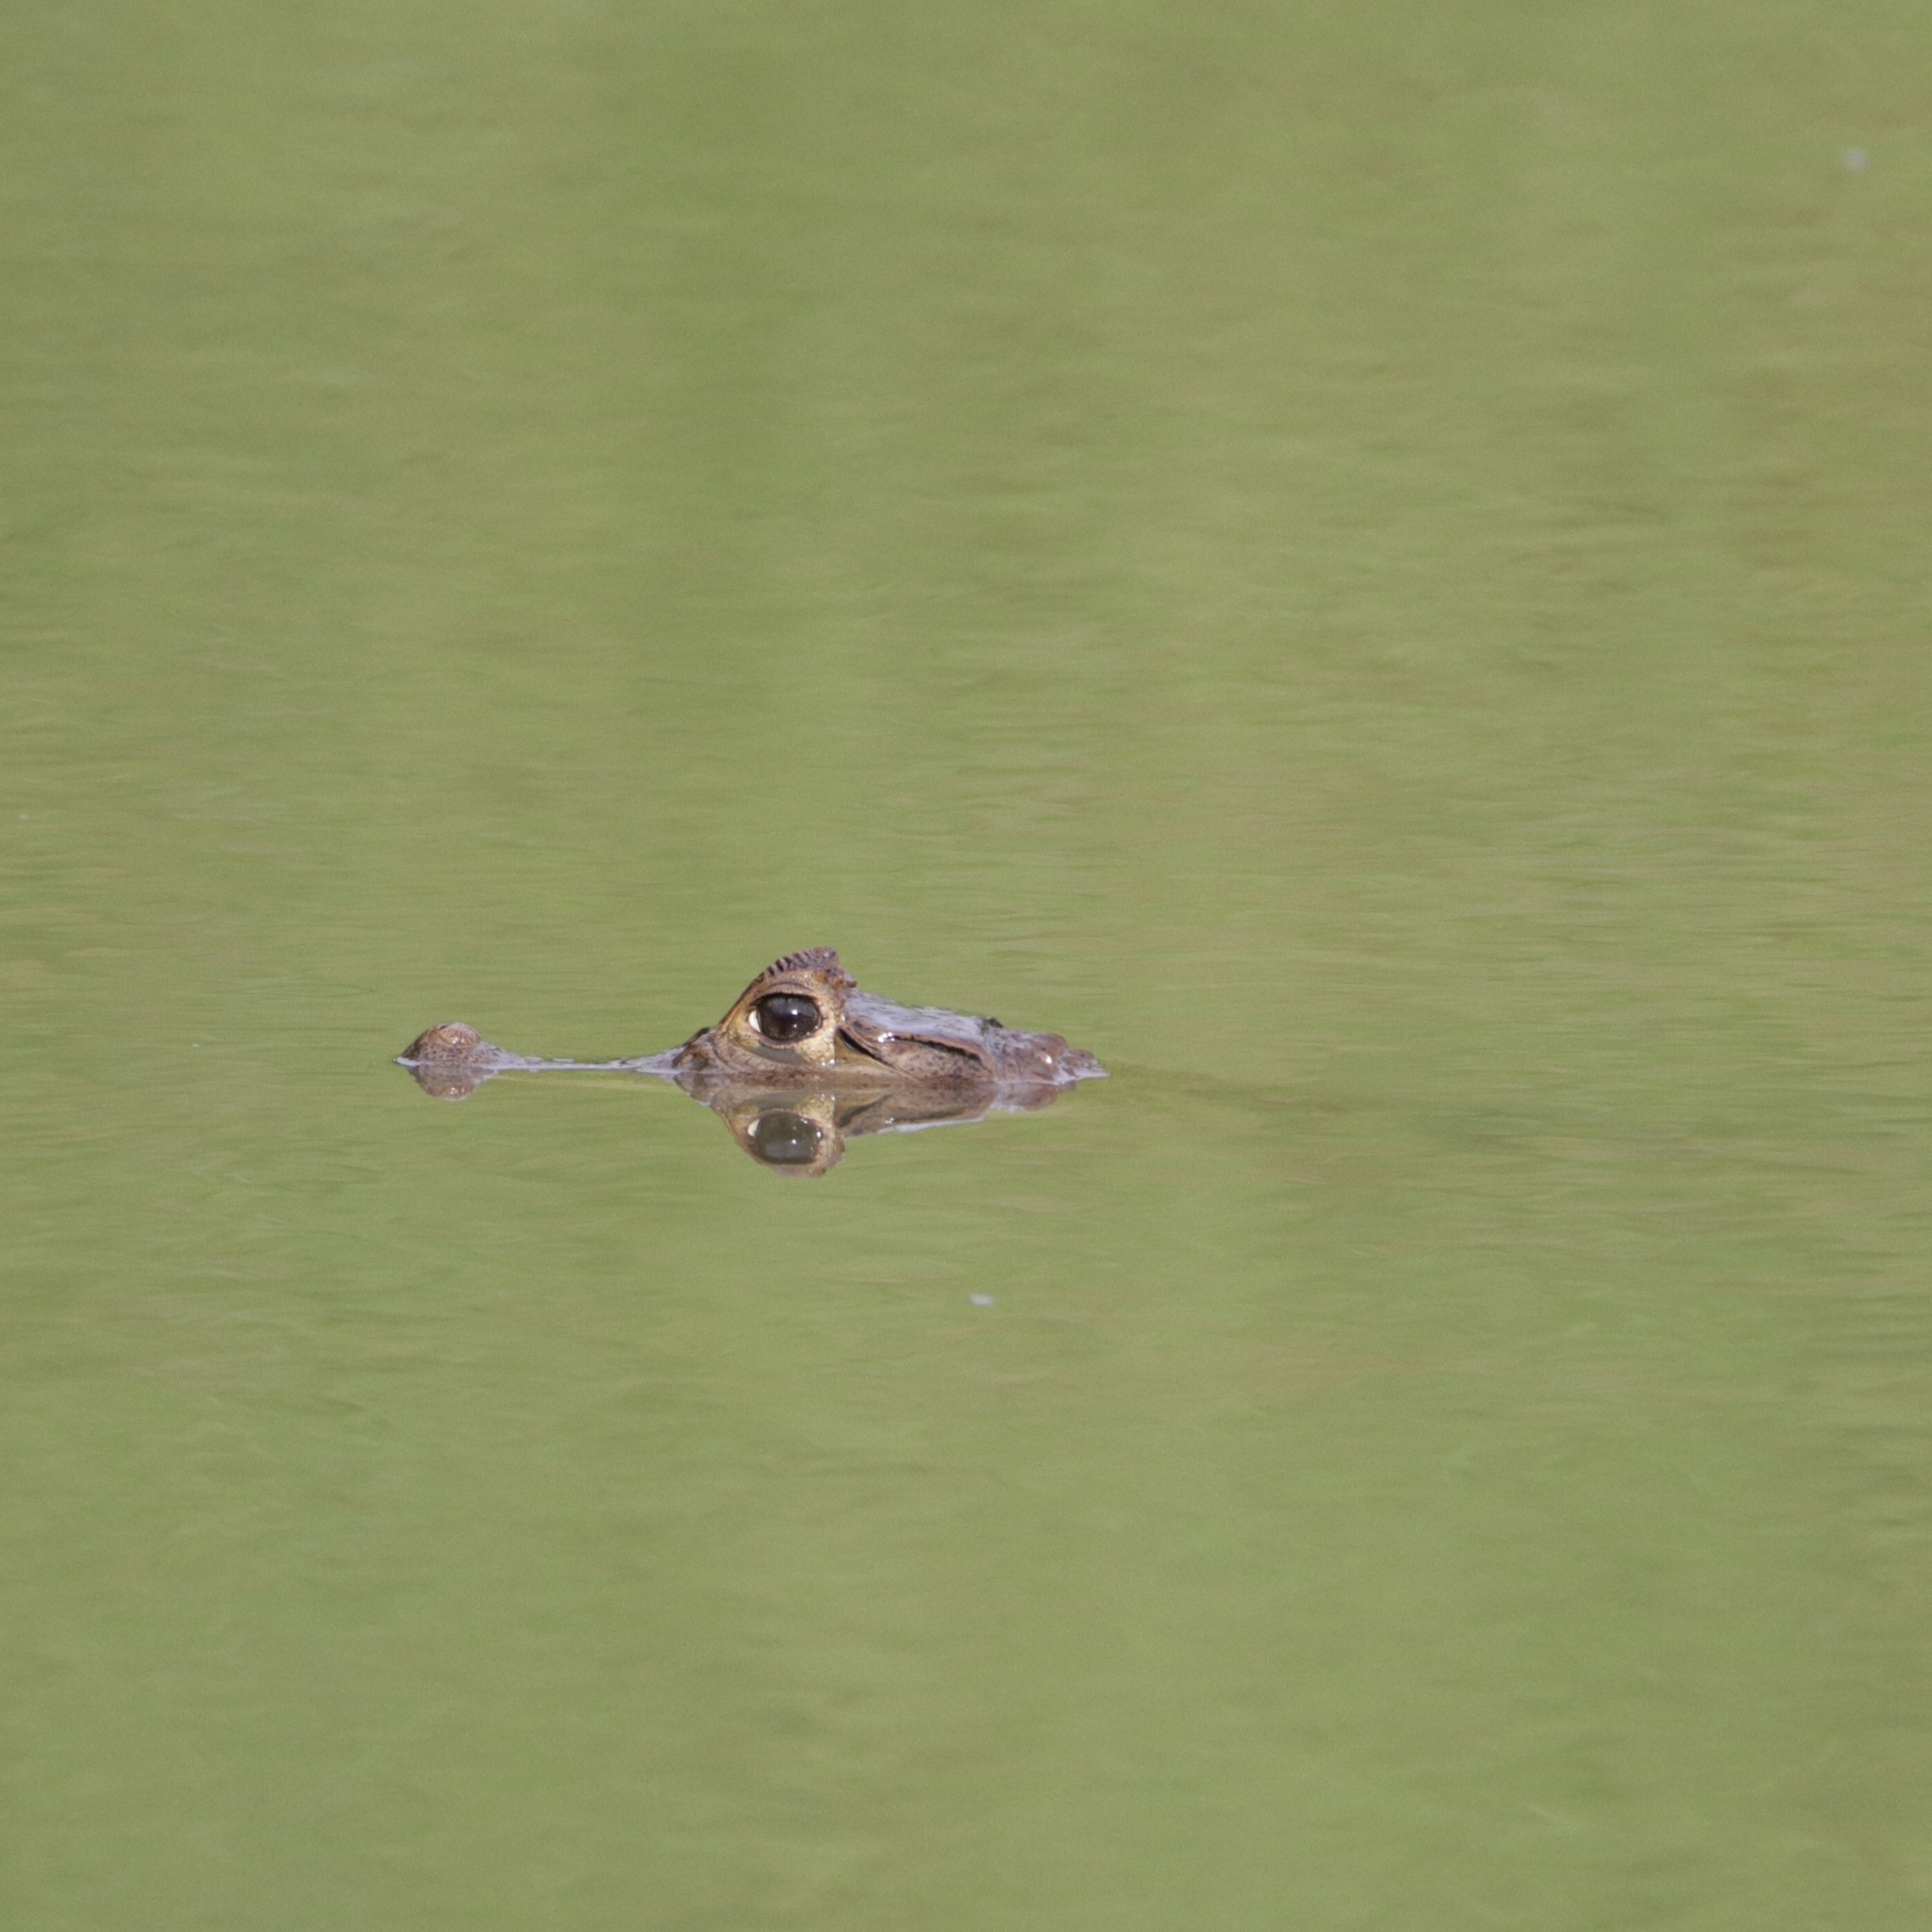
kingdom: Animalia
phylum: Chordata
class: Crocodylia
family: Alligatoridae
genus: Caiman
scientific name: Caiman crocodilus
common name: Common caiman
